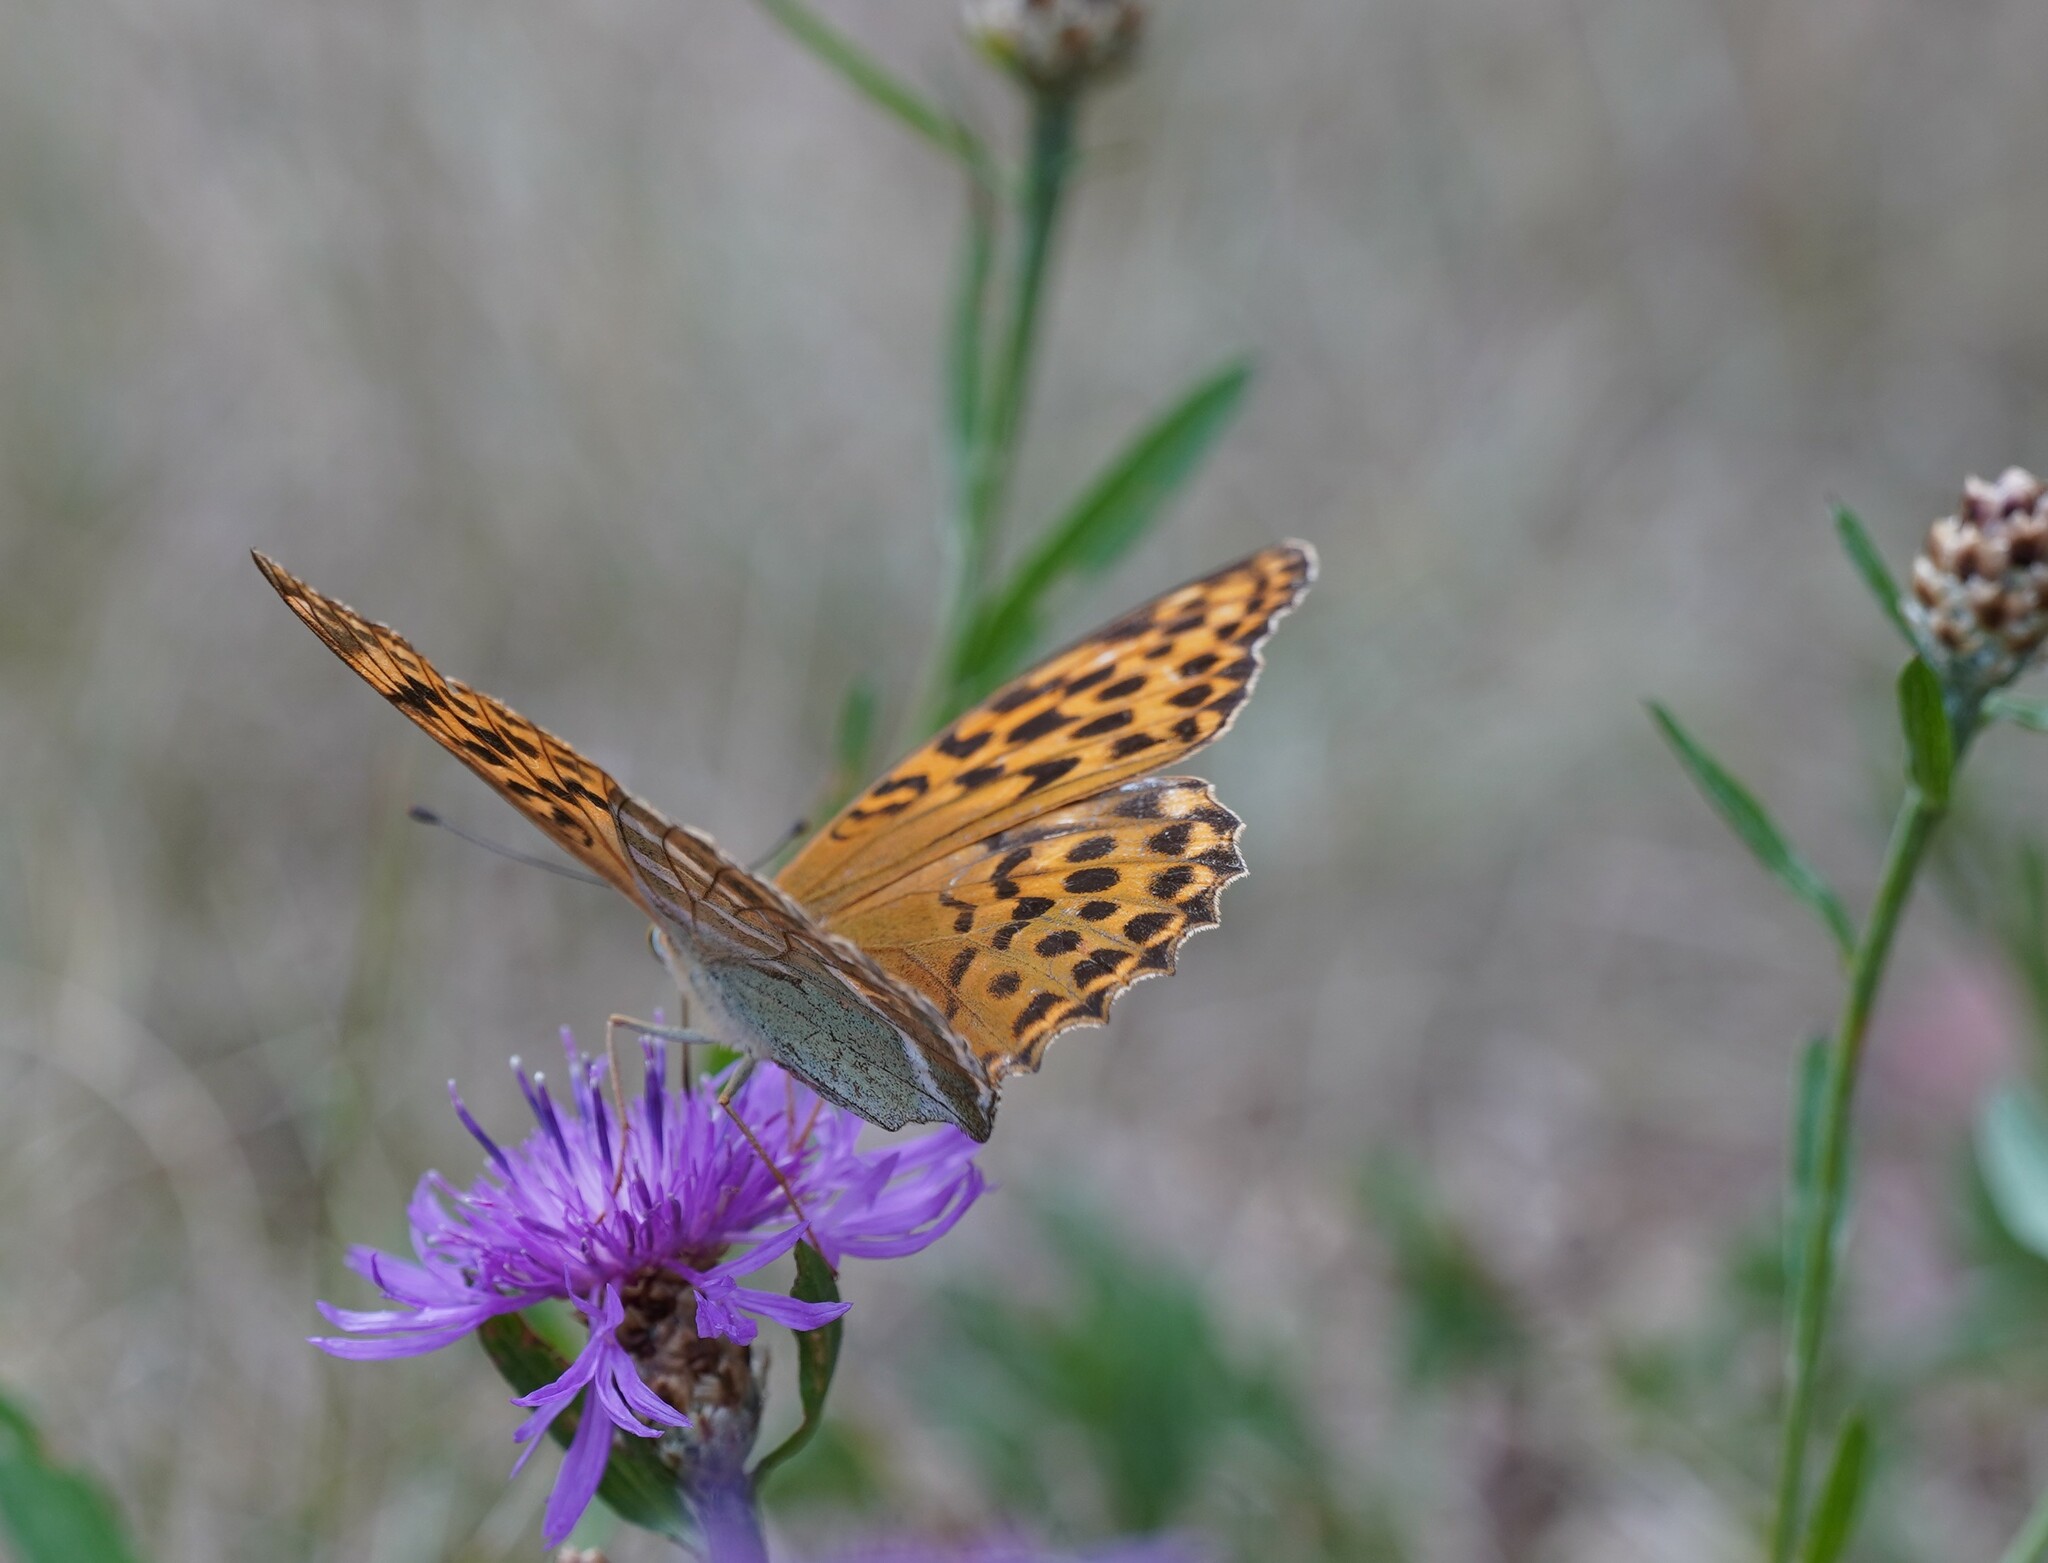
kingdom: Animalia
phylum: Arthropoda
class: Insecta
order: Lepidoptera
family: Nymphalidae
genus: Argynnis
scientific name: Argynnis paphia
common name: Silver-washed fritillary
